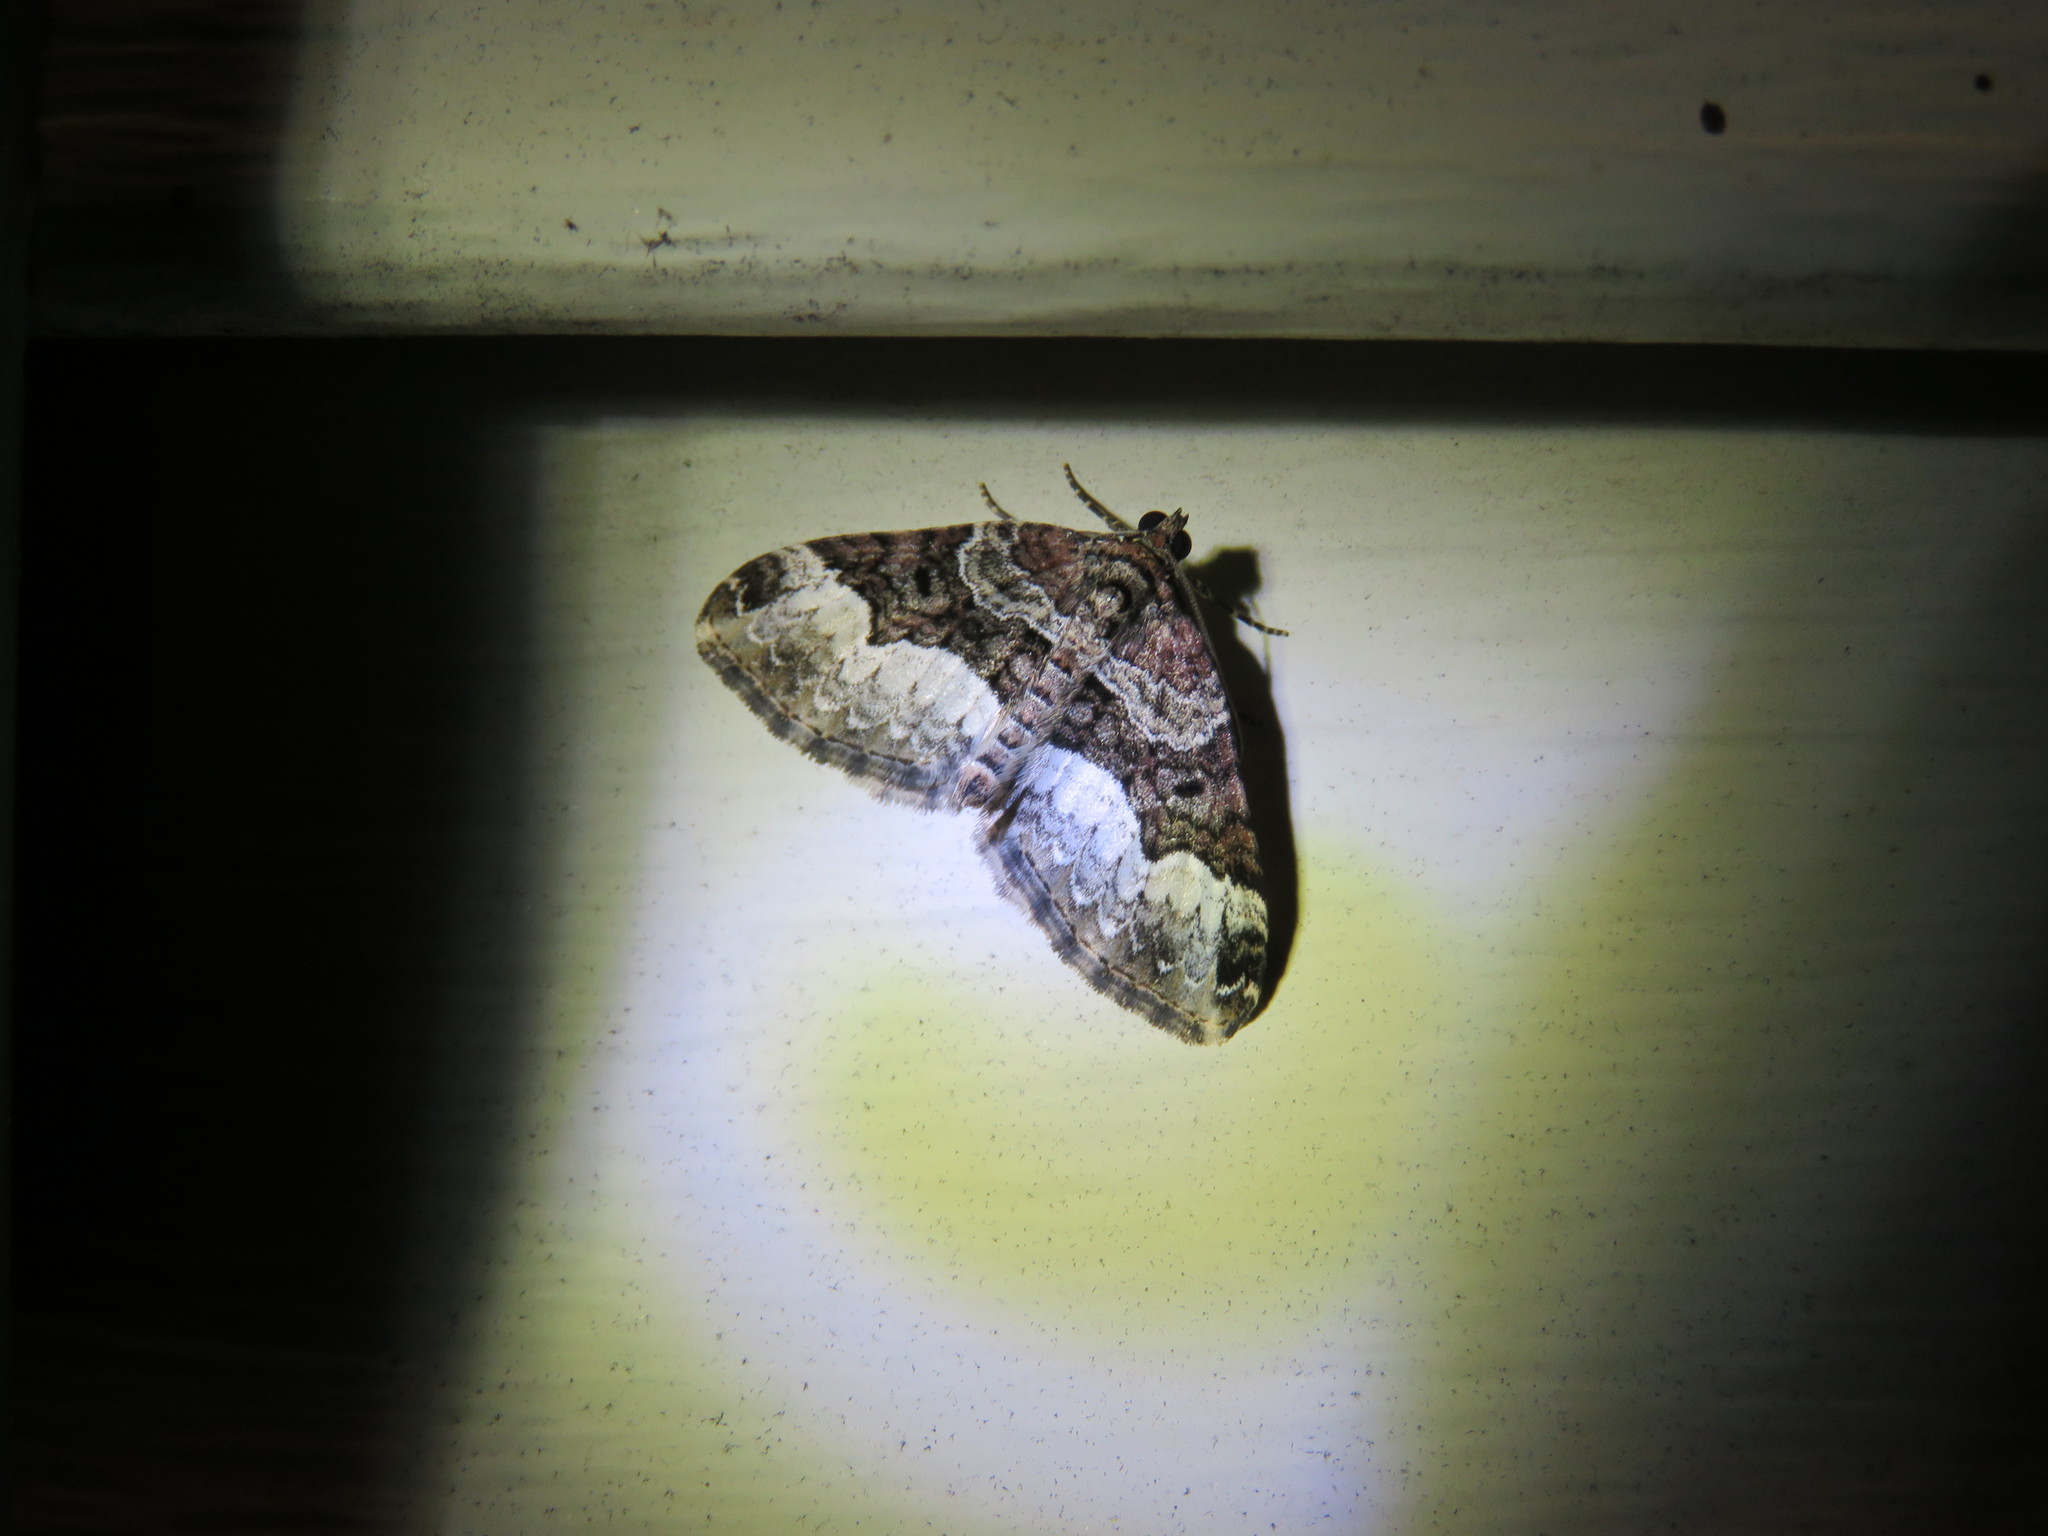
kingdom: Animalia
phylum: Arthropoda
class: Insecta
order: Lepidoptera
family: Geometridae
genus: Euphyia
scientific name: Euphyia intermediata
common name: Sharp-angled carpet
